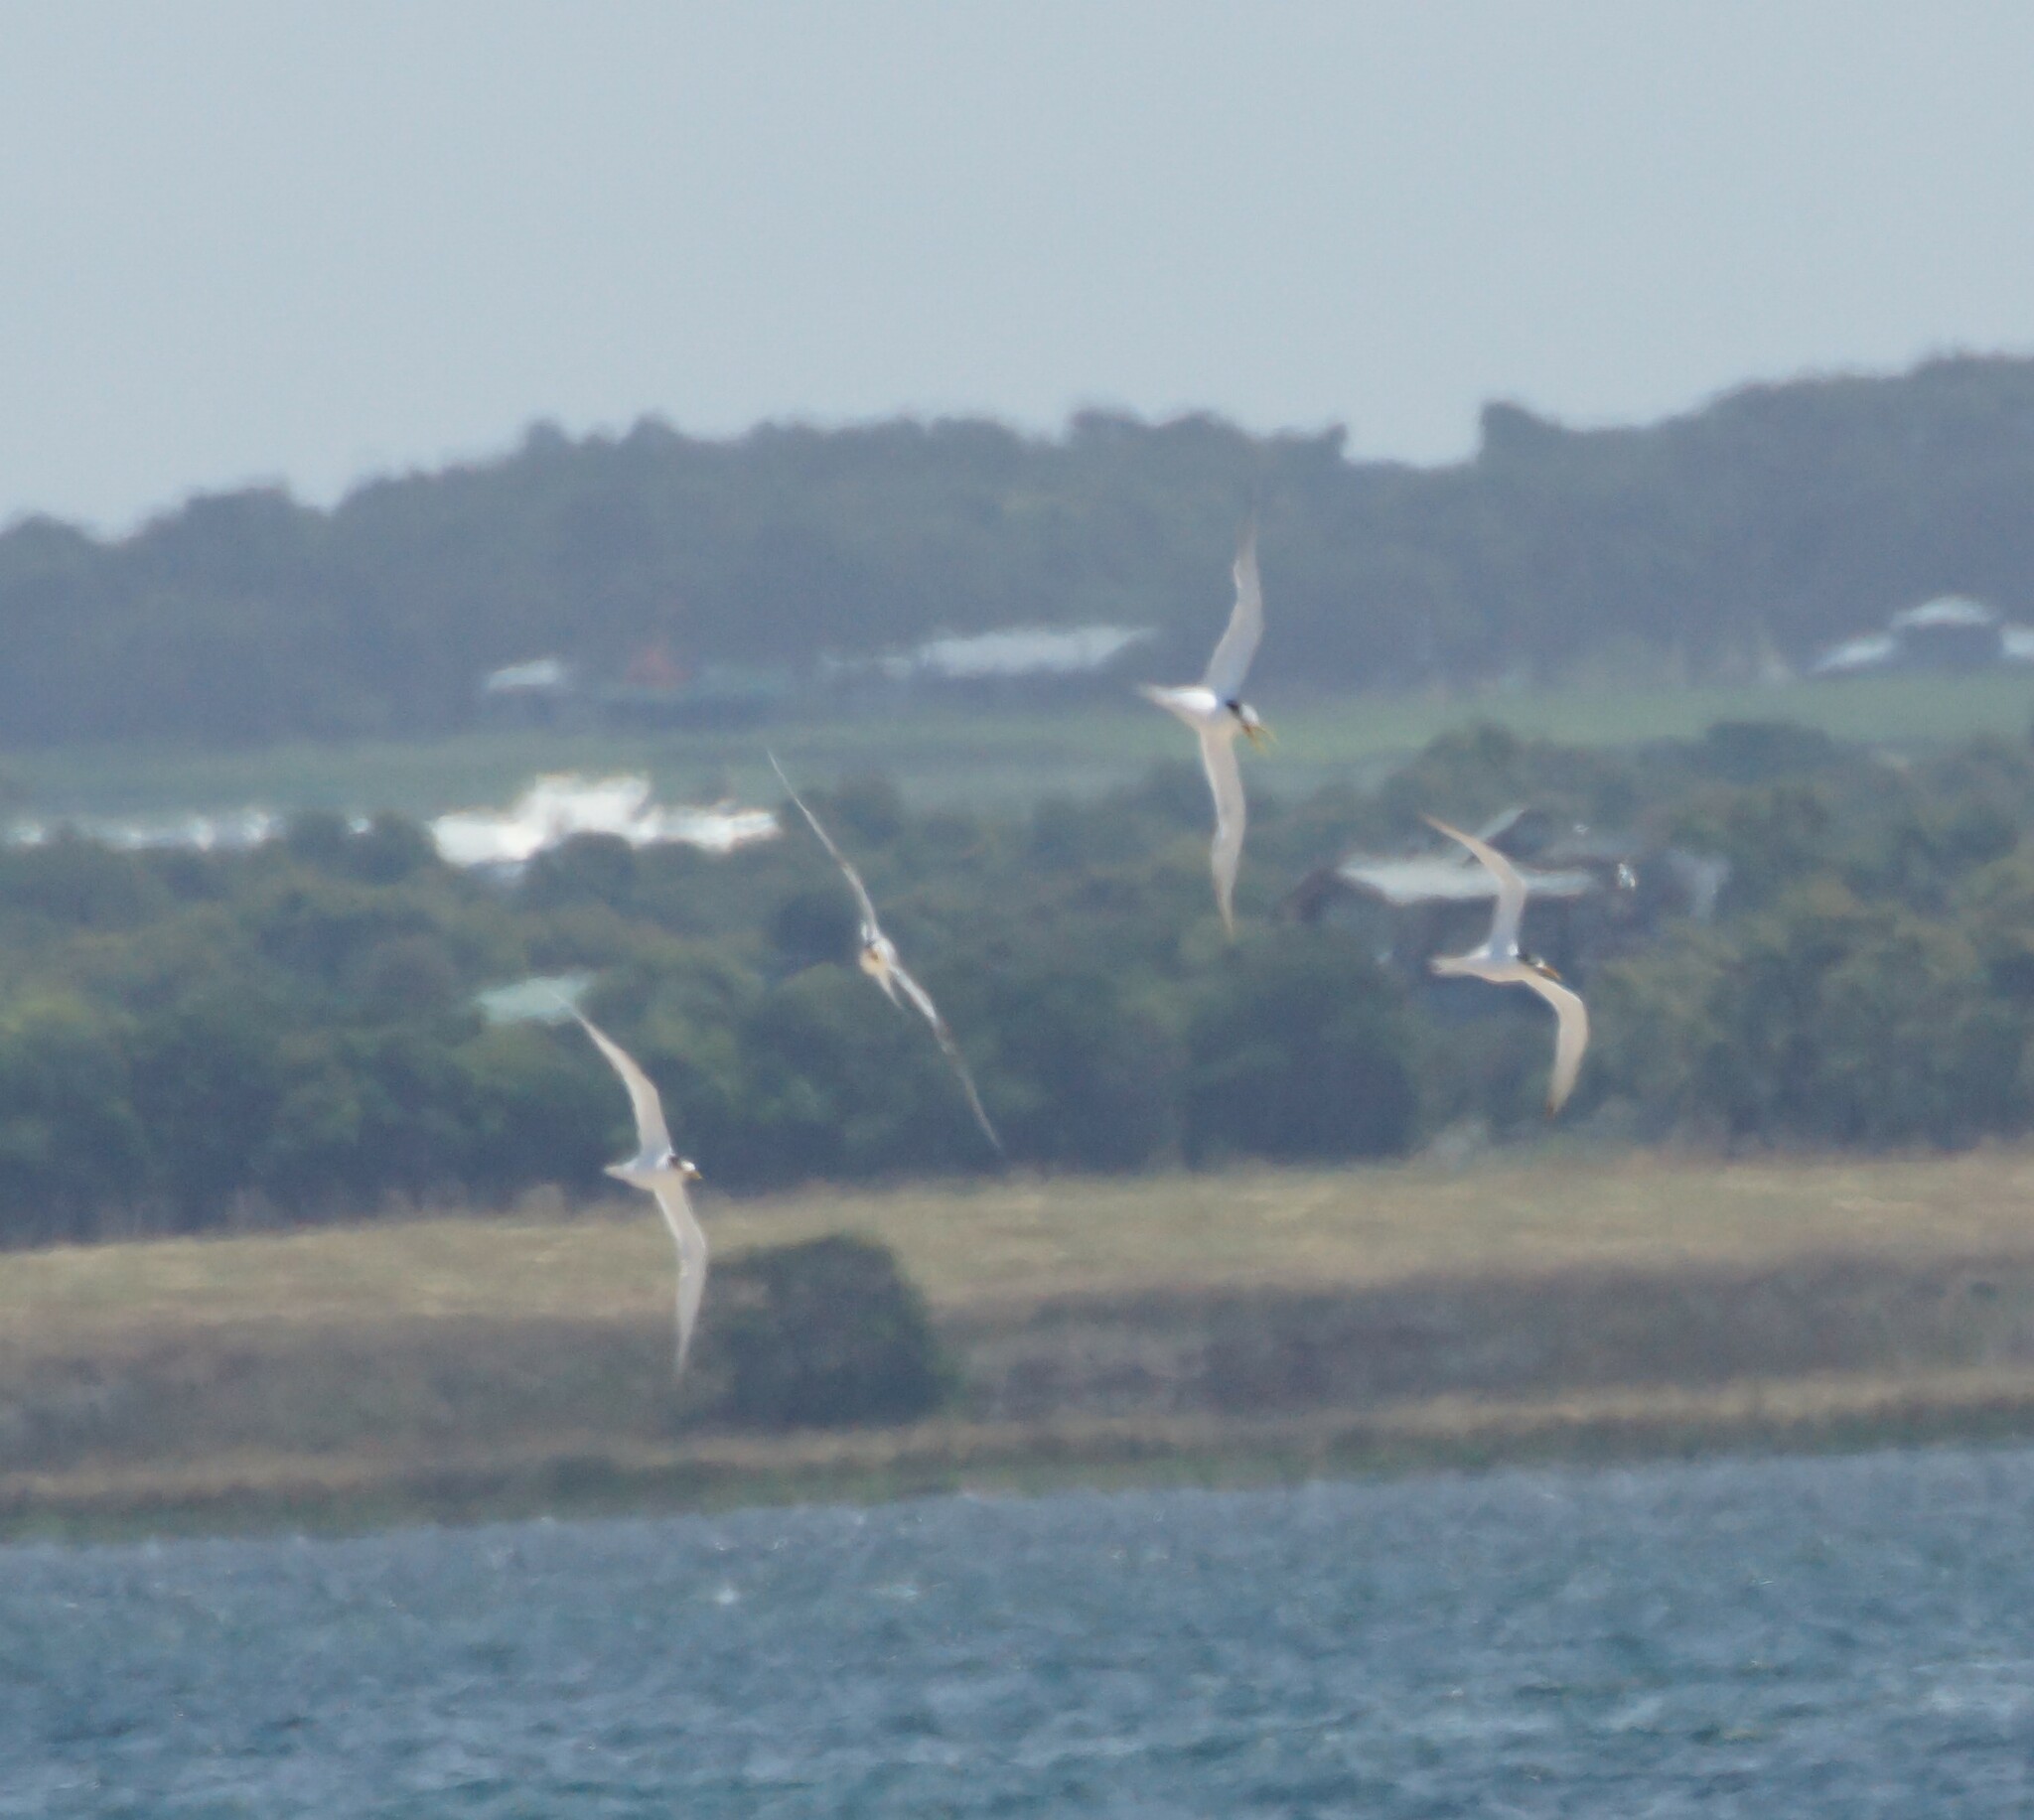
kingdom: Animalia
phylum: Chordata
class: Aves
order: Charadriiformes
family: Laridae
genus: Sternula
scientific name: Sternula nereis
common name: Fairy tern
